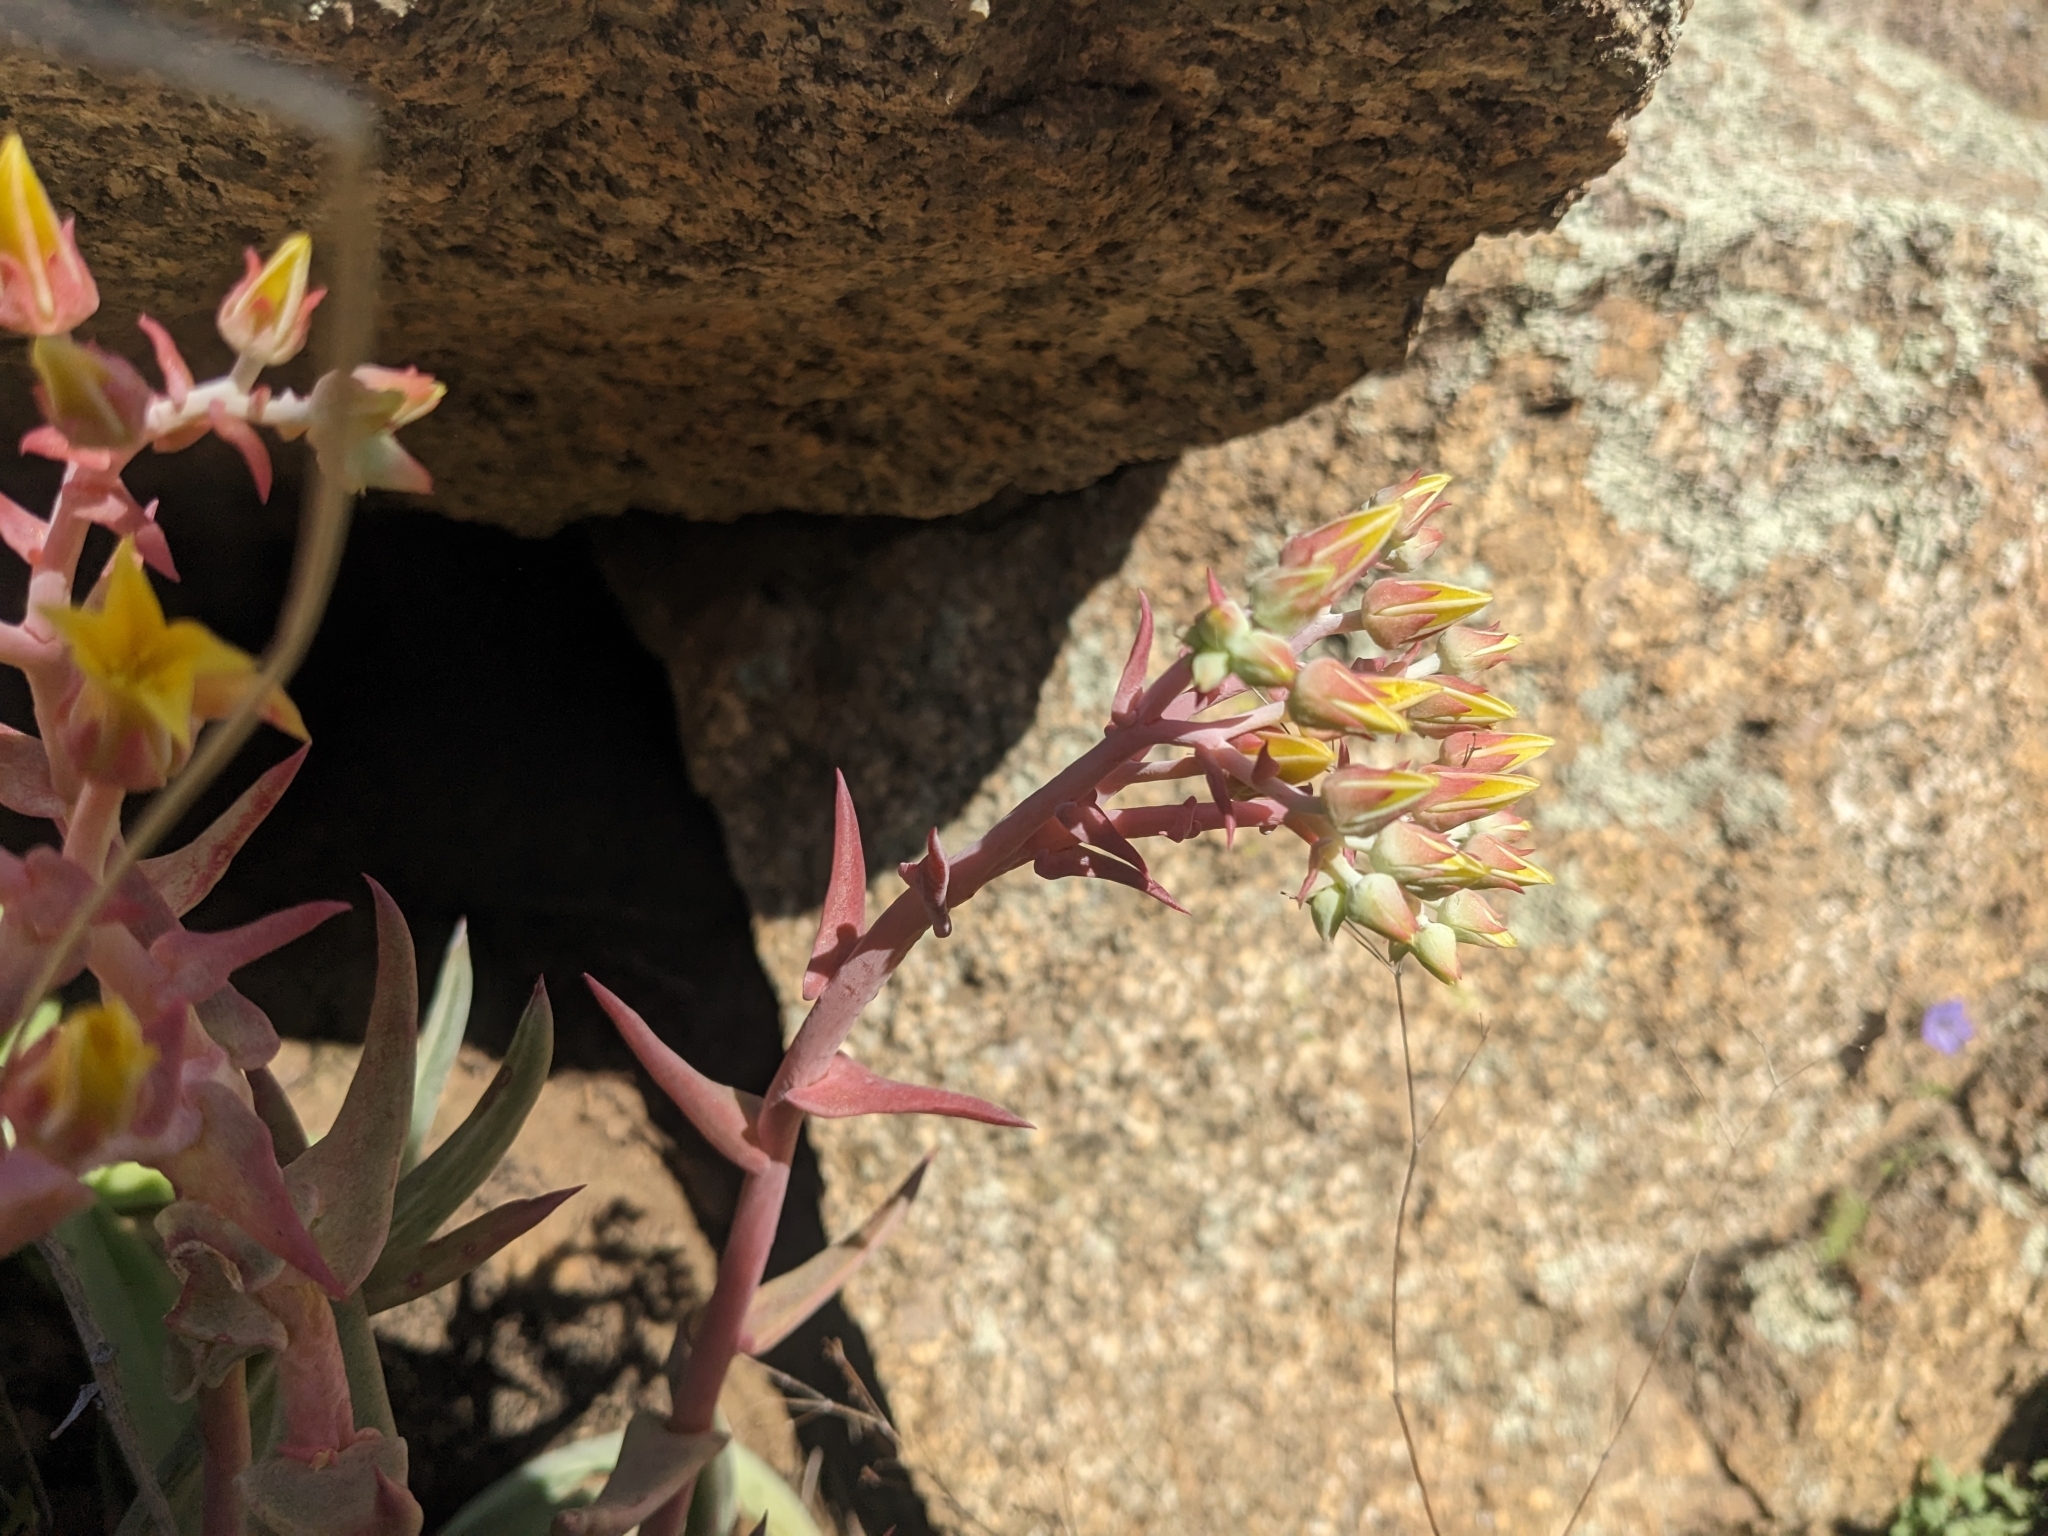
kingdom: Plantae
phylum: Tracheophyta
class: Magnoliopsida
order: Saxifragales
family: Crassulaceae
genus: Dudleya
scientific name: Dudleya collomiae
